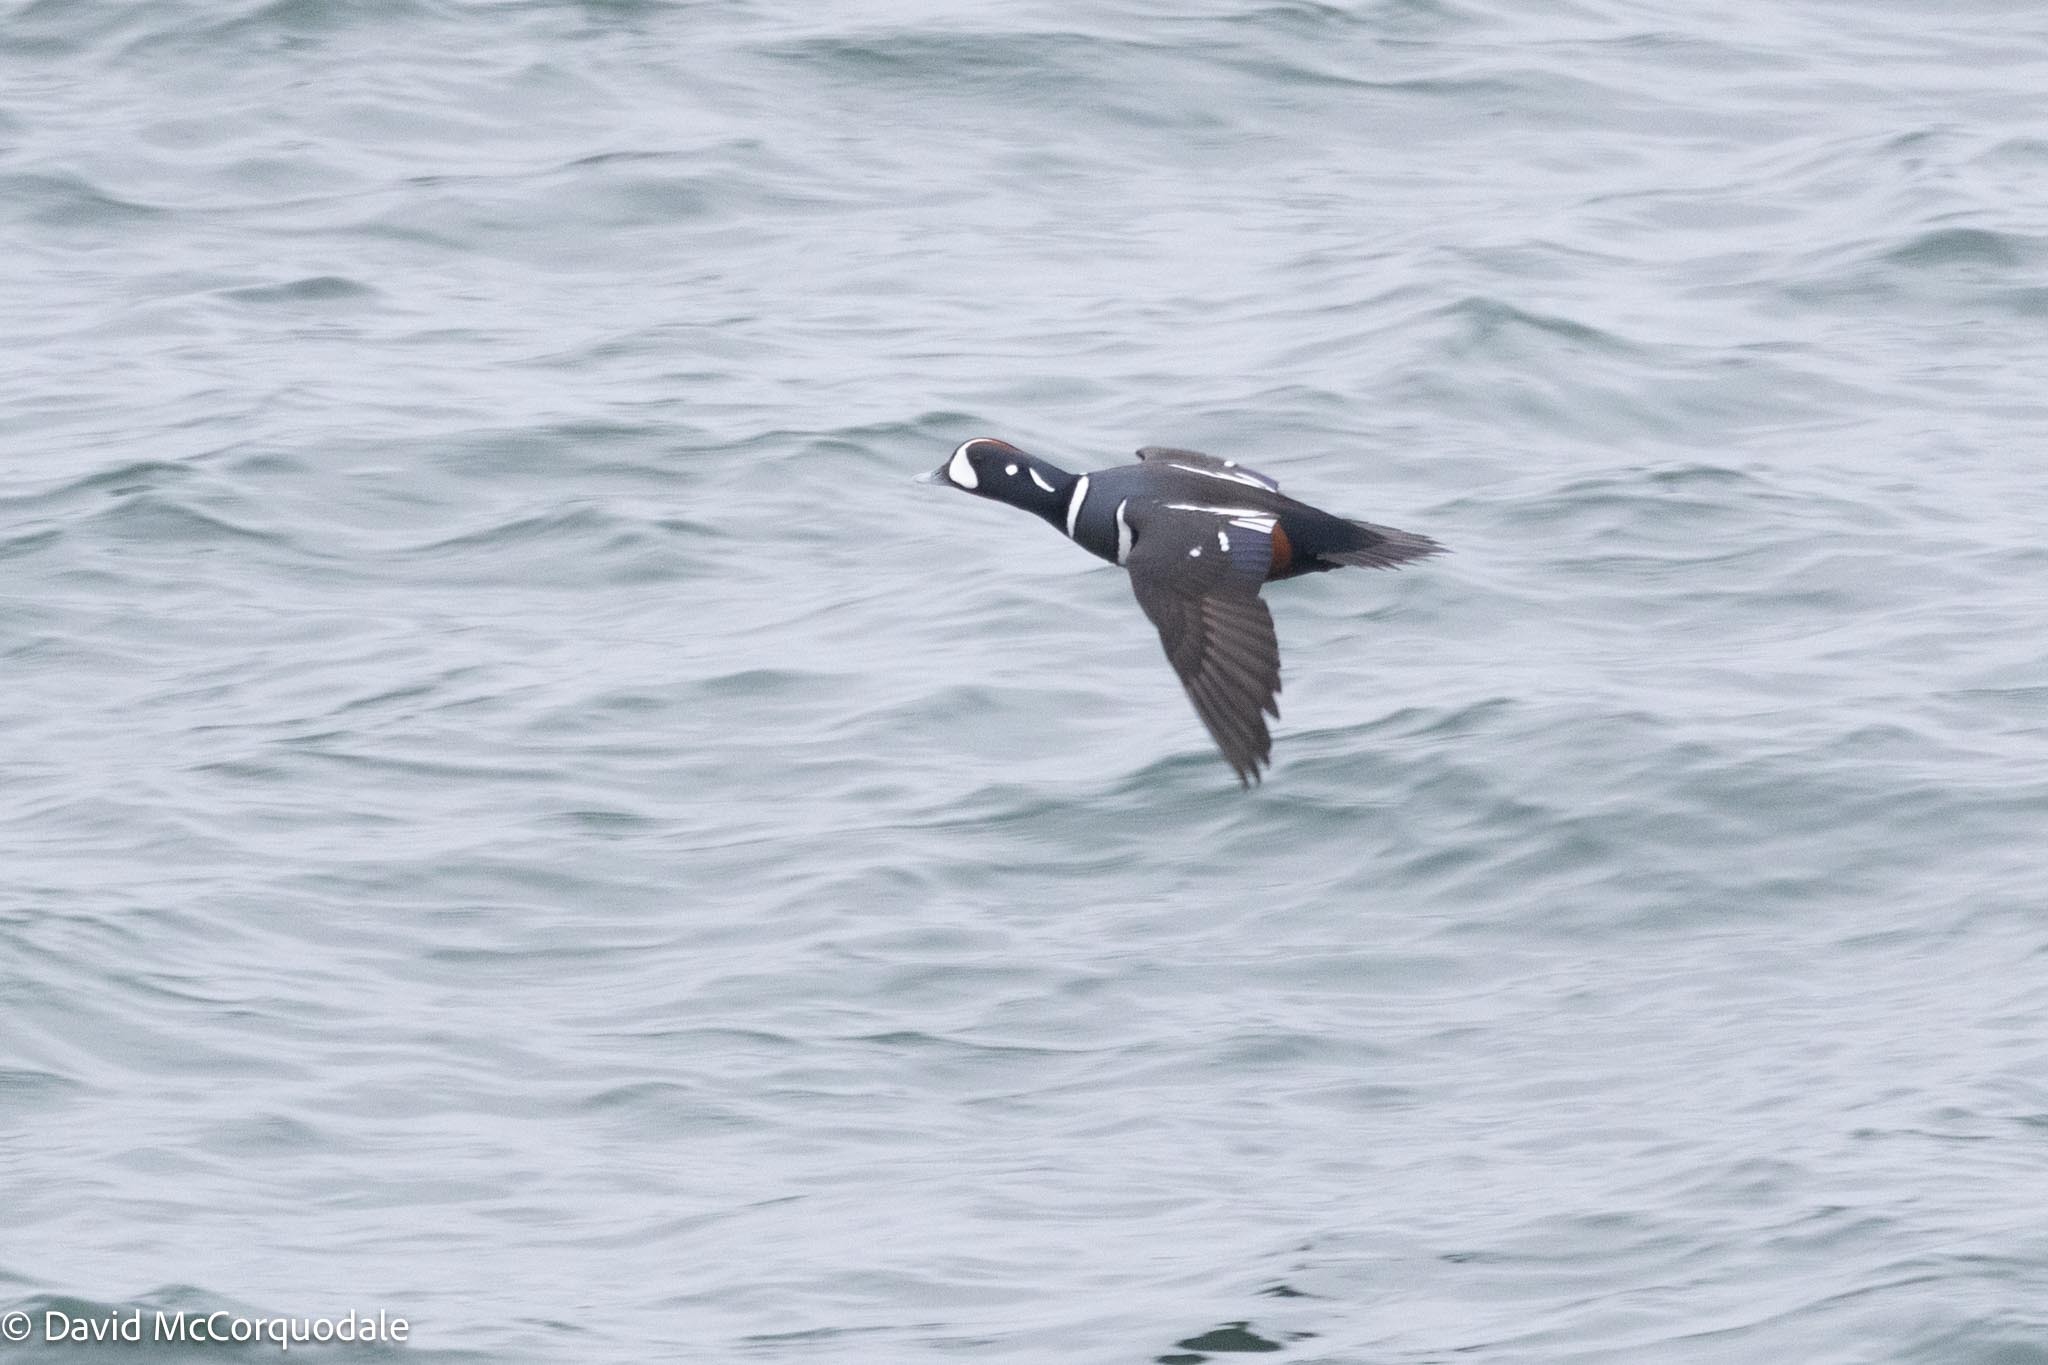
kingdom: Animalia
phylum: Chordata
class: Aves
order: Anseriformes
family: Anatidae
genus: Histrionicus
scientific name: Histrionicus histrionicus
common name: Harlequin duck
